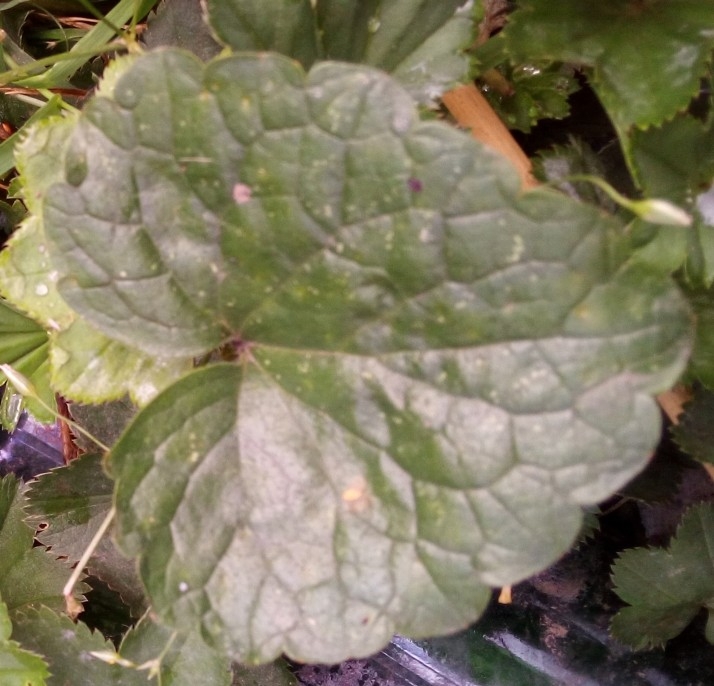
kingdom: Plantae
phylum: Tracheophyta
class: Magnoliopsida
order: Lamiales
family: Lamiaceae
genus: Glechoma
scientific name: Glechoma hederacea
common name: Ground ivy
